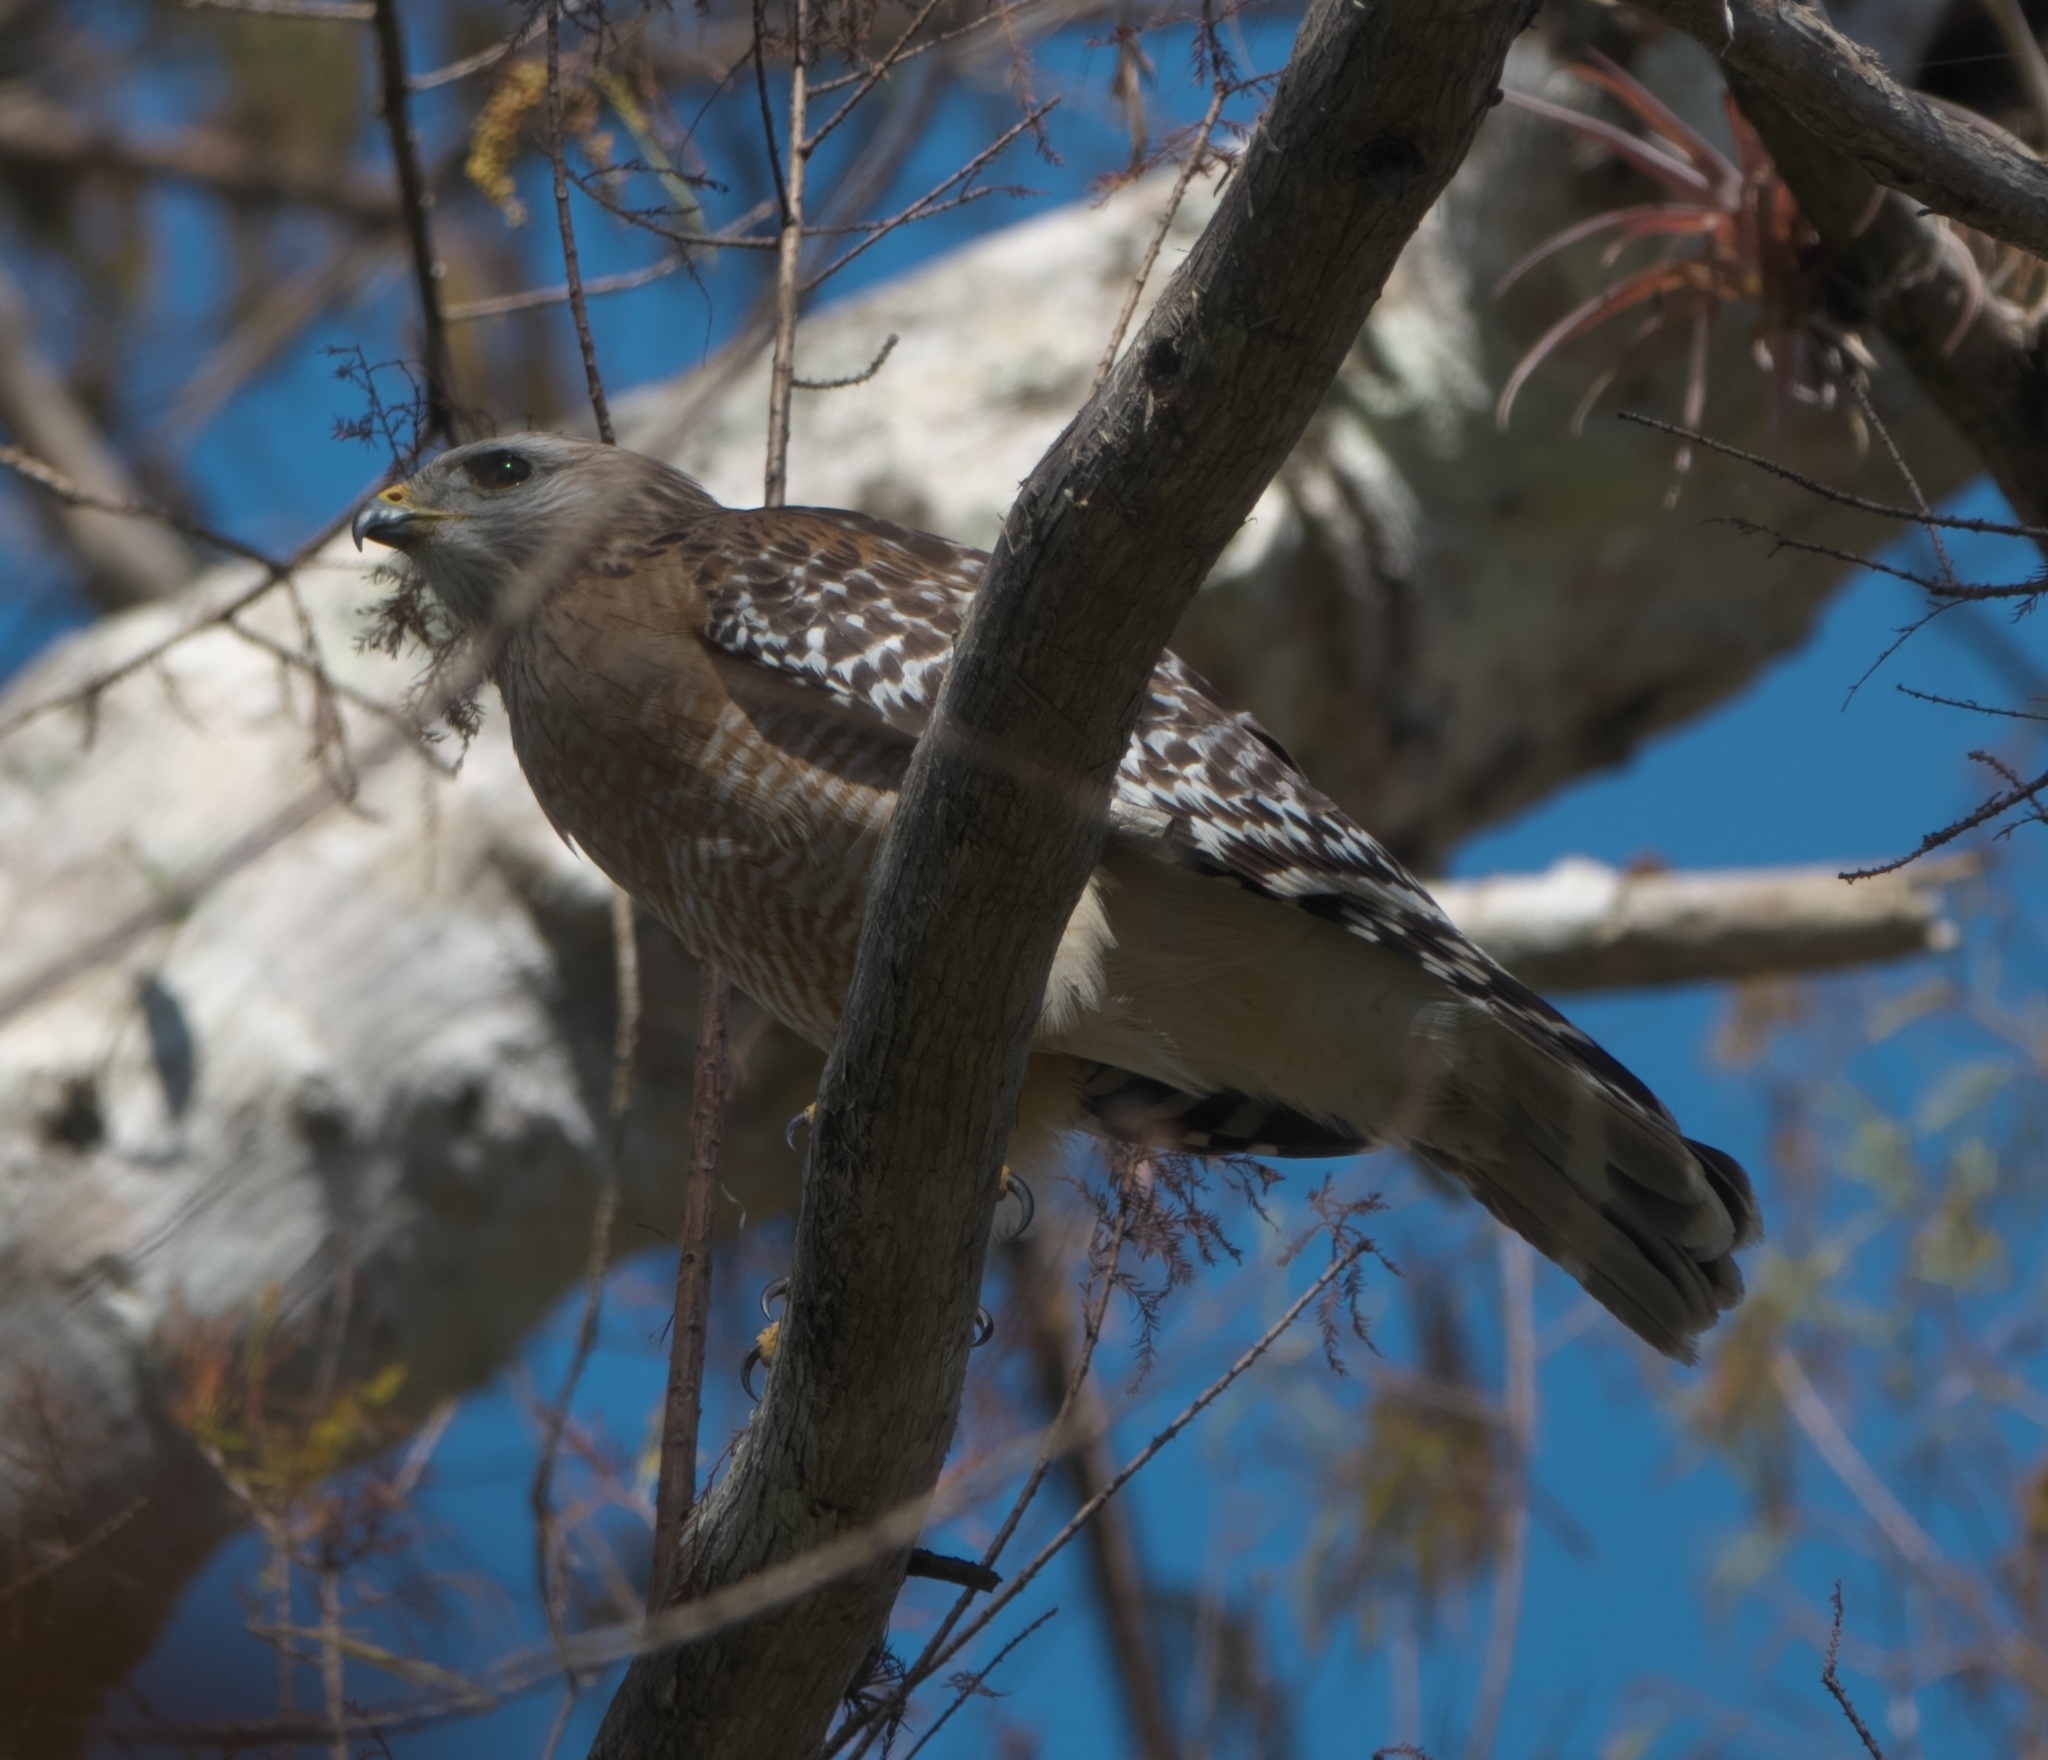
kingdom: Animalia
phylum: Chordata
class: Aves
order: Accipitriformes
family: Accipitridae
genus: Buteo
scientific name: Buteo lineatus
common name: Red-shouldered hawk
